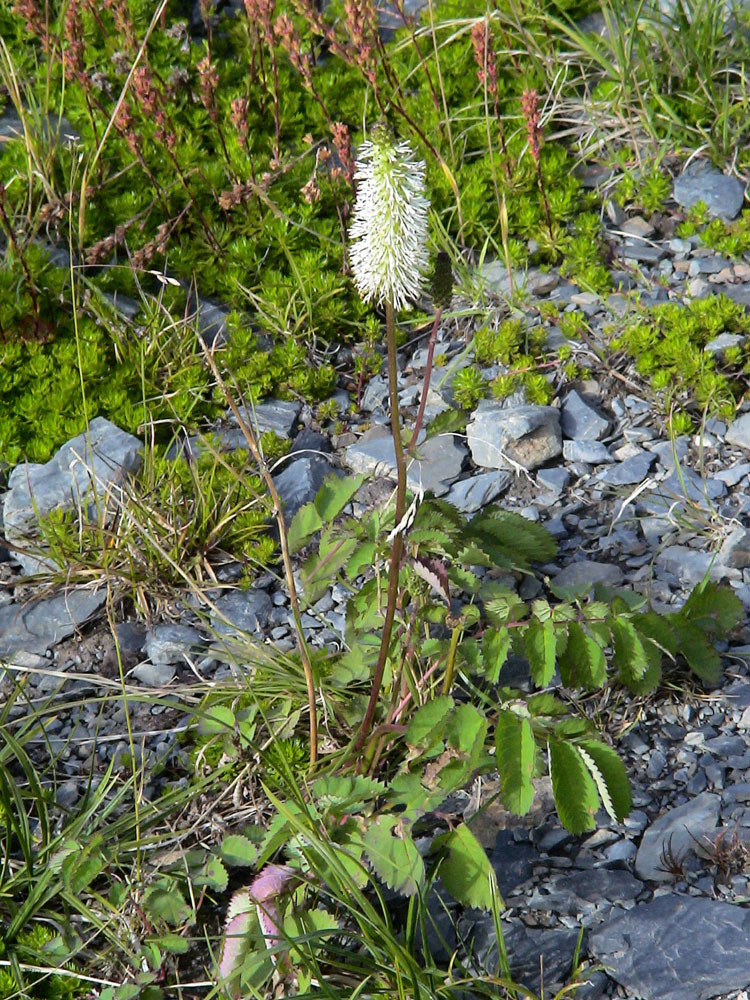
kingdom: Plantae
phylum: Tracheophyta
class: Magnoliopsida
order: Rosales
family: Rosaceae
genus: Sanguisorba
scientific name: Sanguisorba stipulata
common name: Sitka burnet
